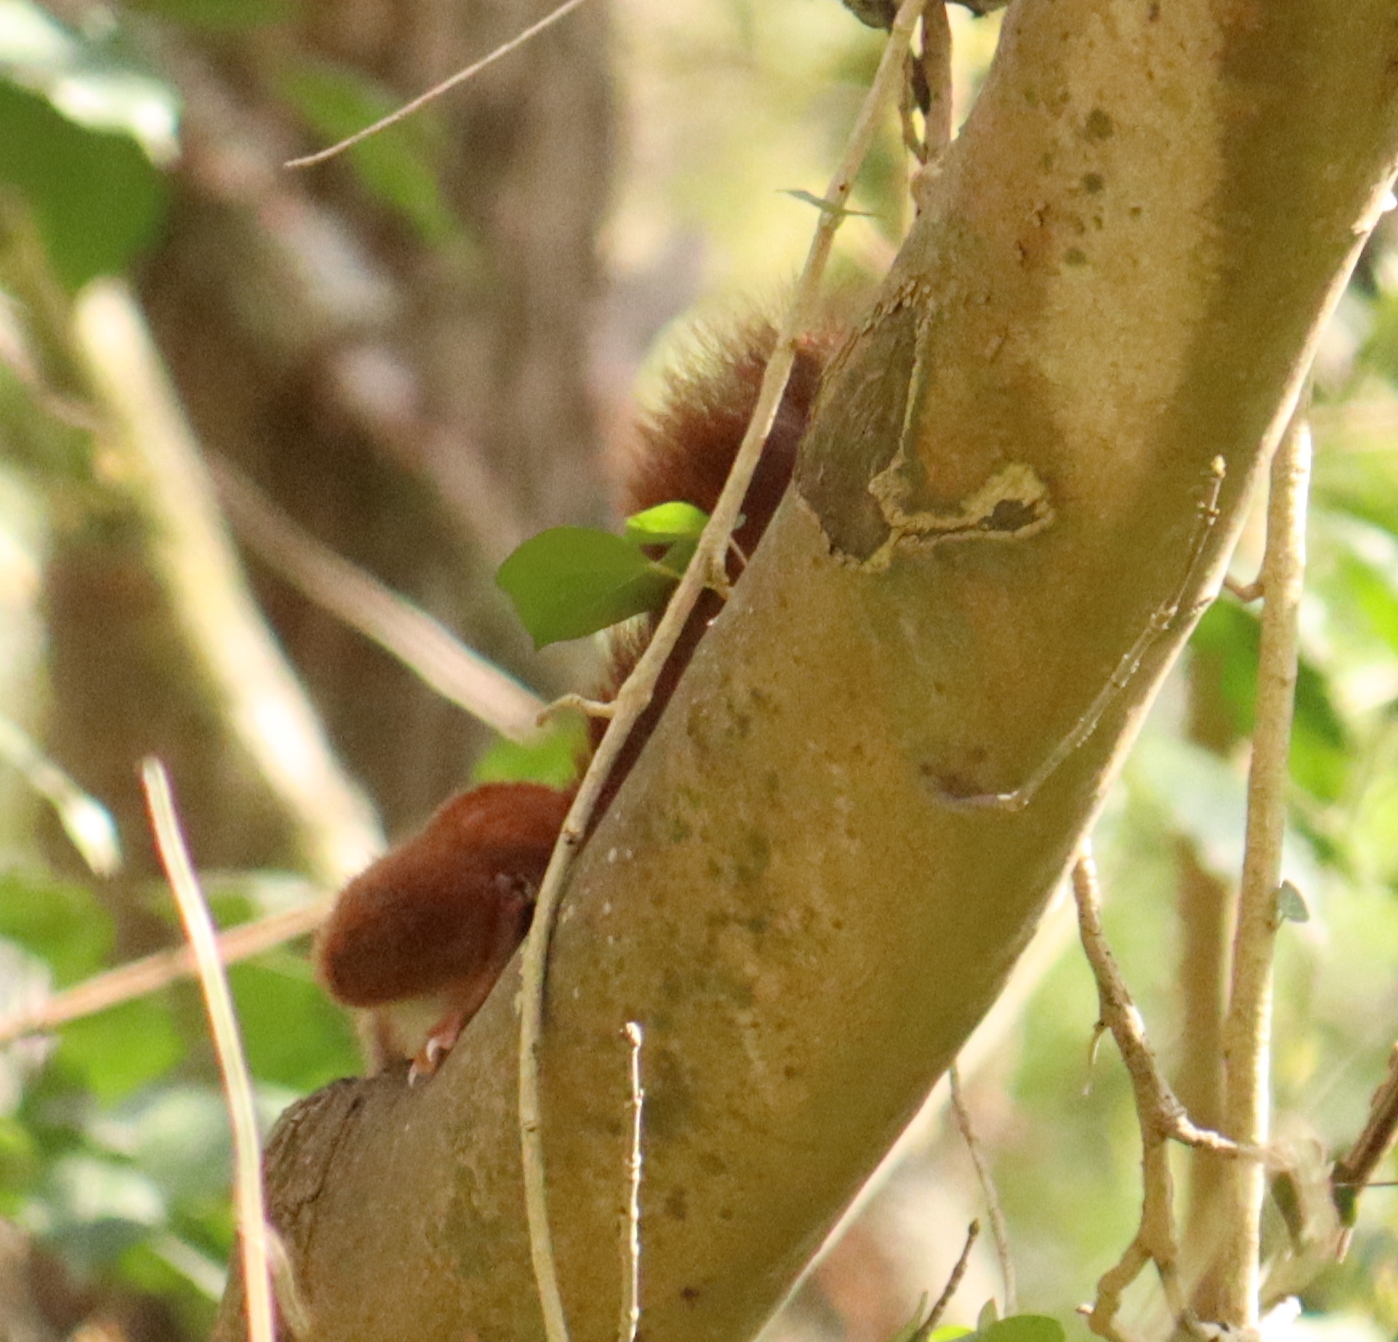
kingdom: Animalia
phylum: Chordata
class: Mammalia
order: Rodentia
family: Sciuridae
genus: Sciurus
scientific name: Sciurus vulgaris
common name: Eurasian red squirrel
